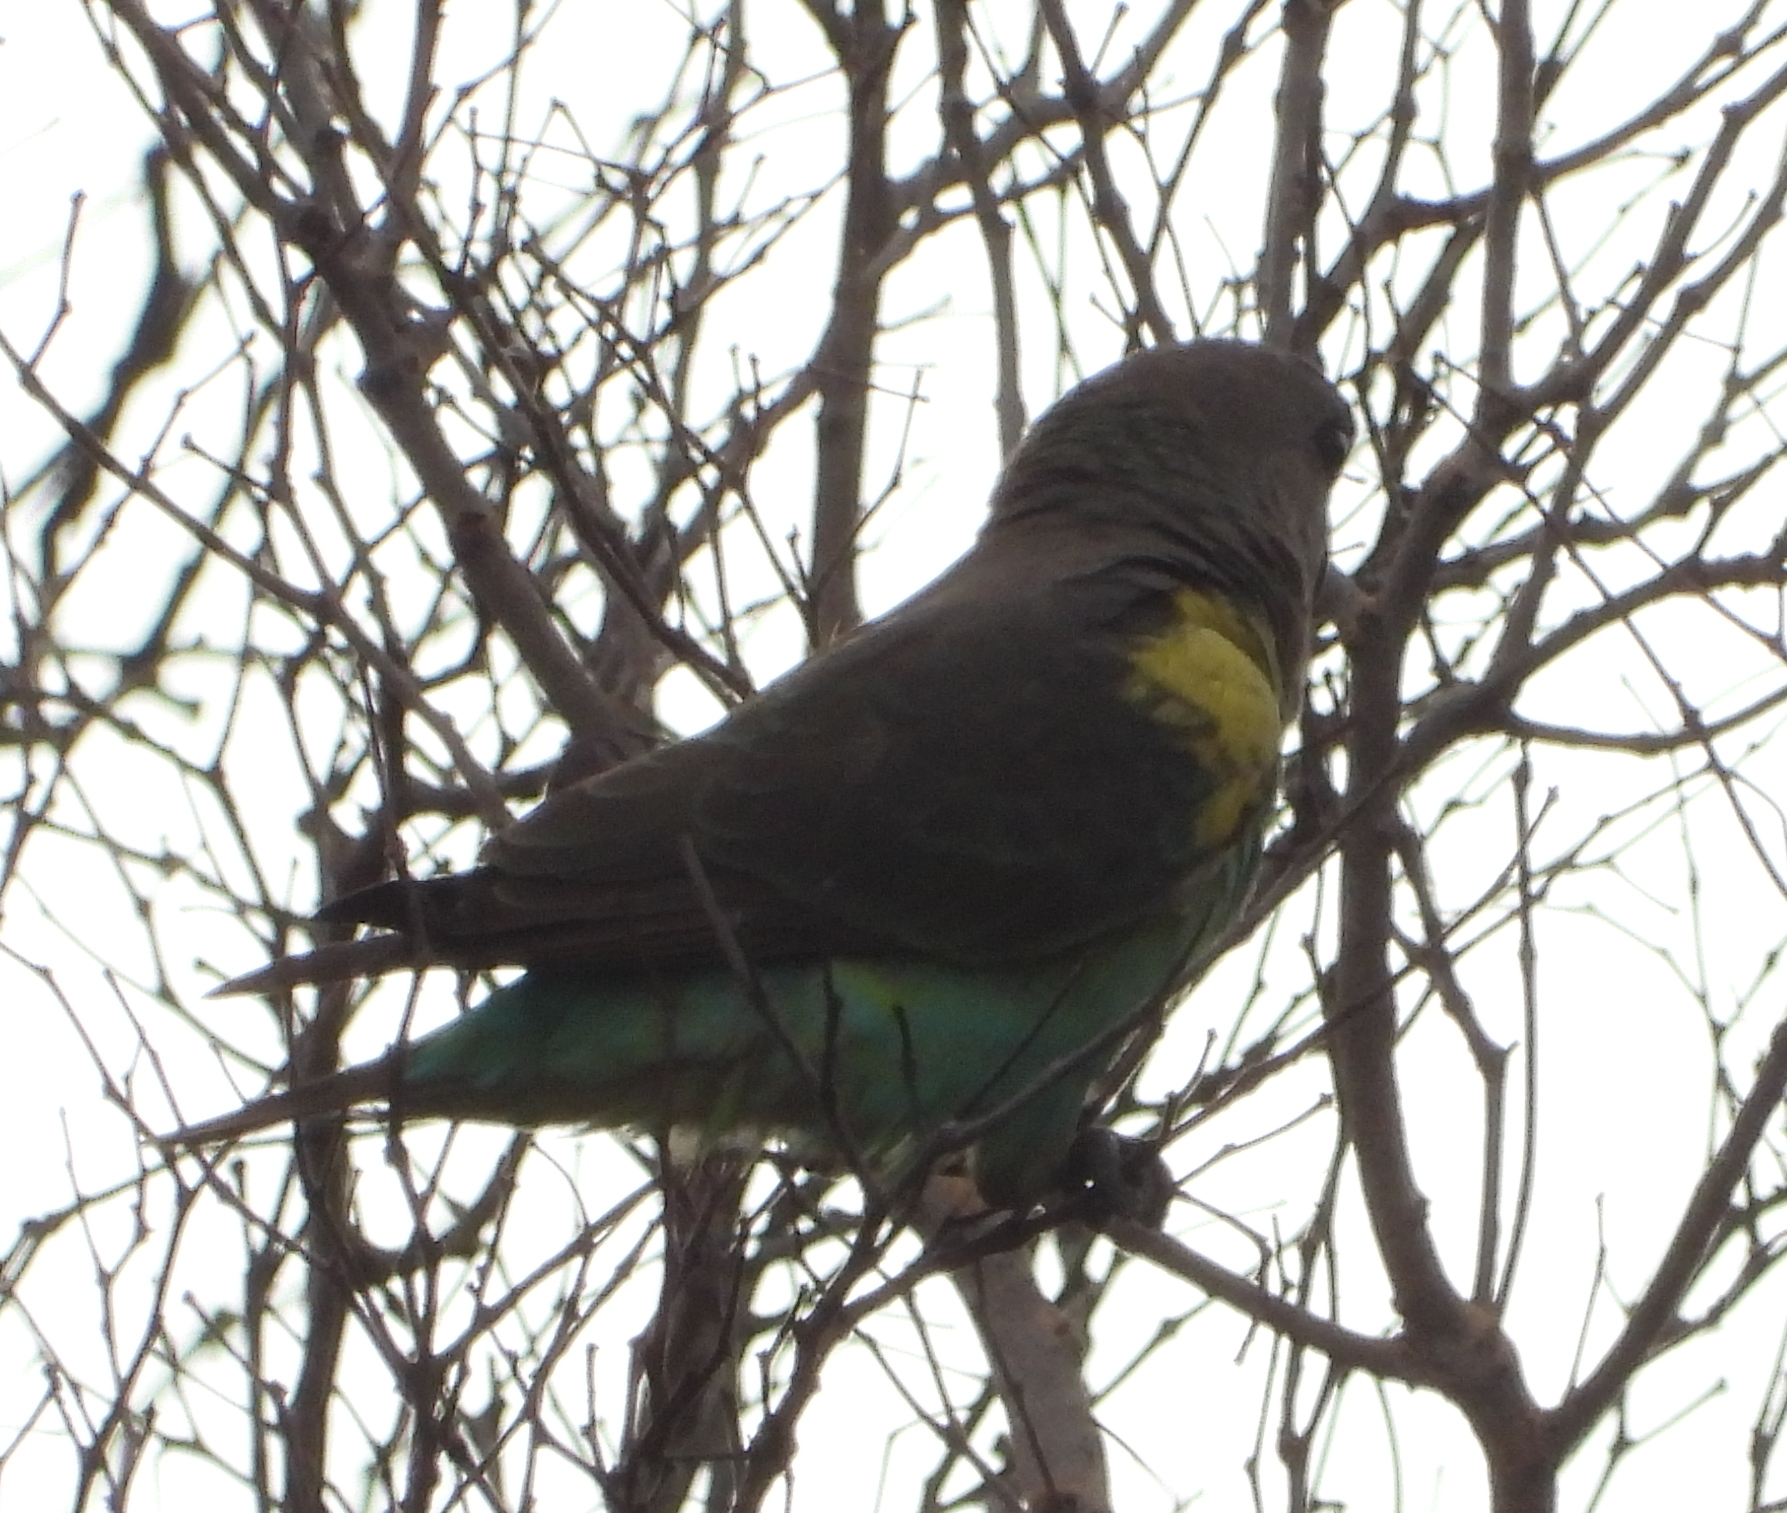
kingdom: Animalia
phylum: Chordata
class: Aves
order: Psittaciformes
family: Psittacidae
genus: Poicephalus
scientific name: Poicephalus meyeri
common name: Meyer's parrot
